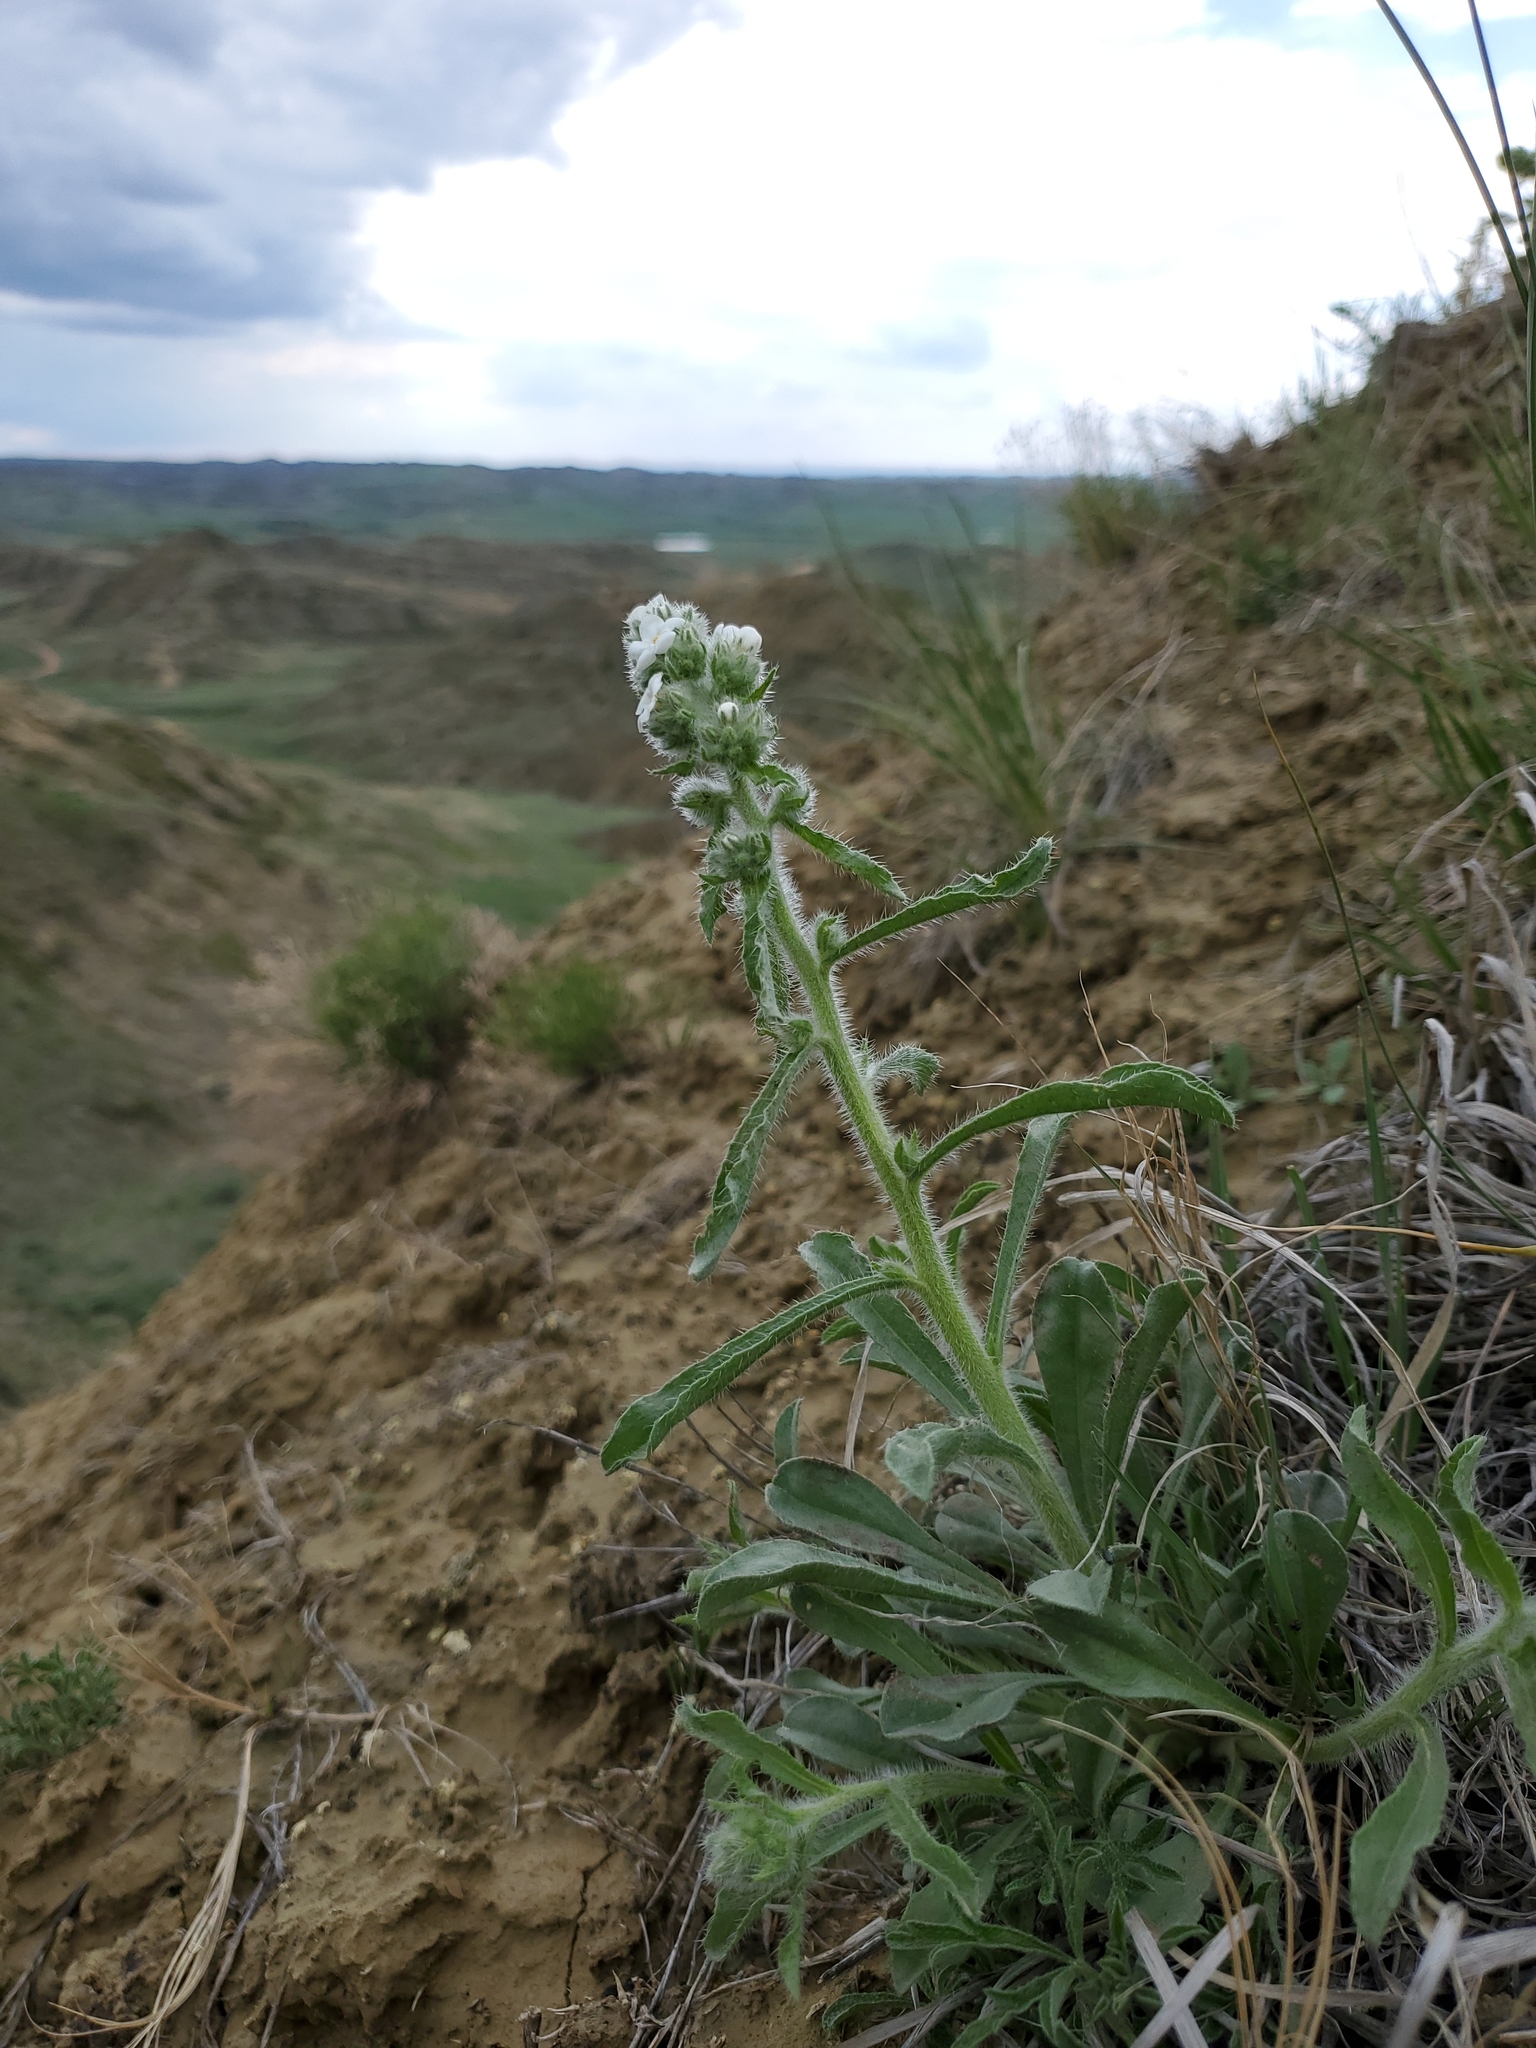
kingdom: Plantae
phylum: Tracheophyta
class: Magnoliopsida
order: Boraginales
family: Boraginaceae
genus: Oreocarya
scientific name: Oreocarya glomerata
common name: Macoun's cryptantha
